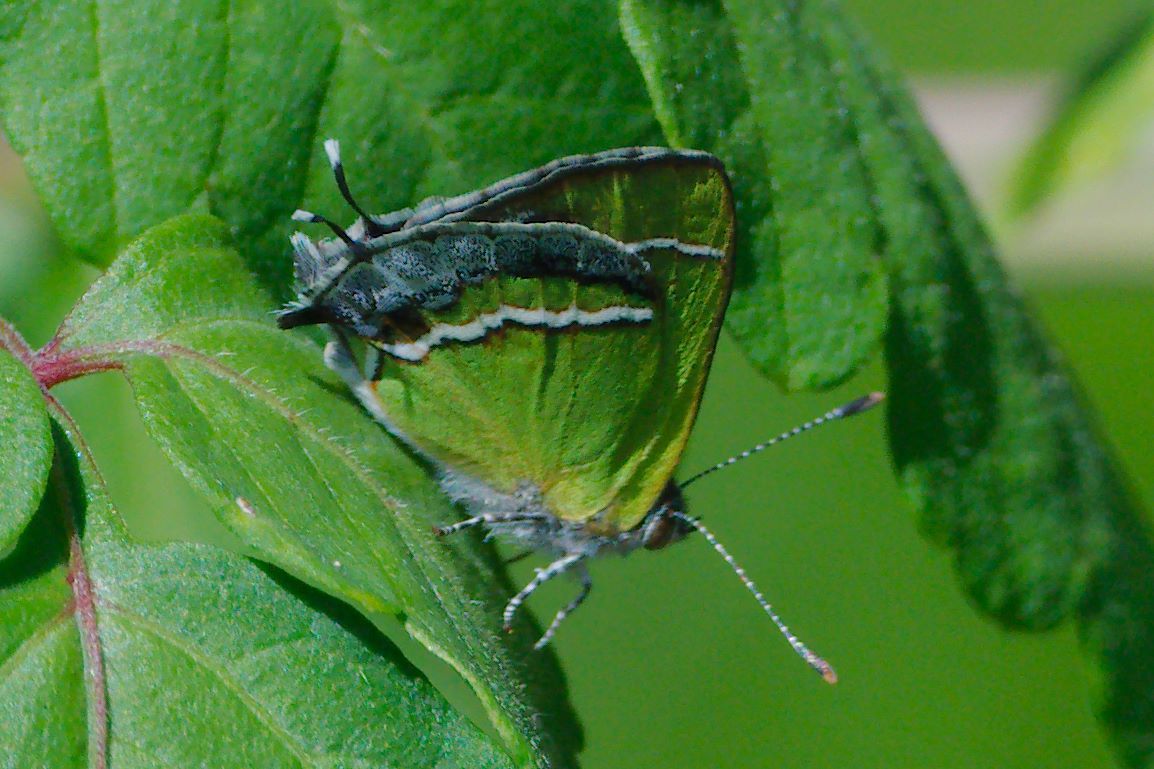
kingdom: Animalia
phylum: Arthropoda
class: Insecta
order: Lepidoptera
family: Lycaenidae
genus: Chlorostrymon
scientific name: Chlorostrymon simaethis
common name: Silver-banded hairstreak
